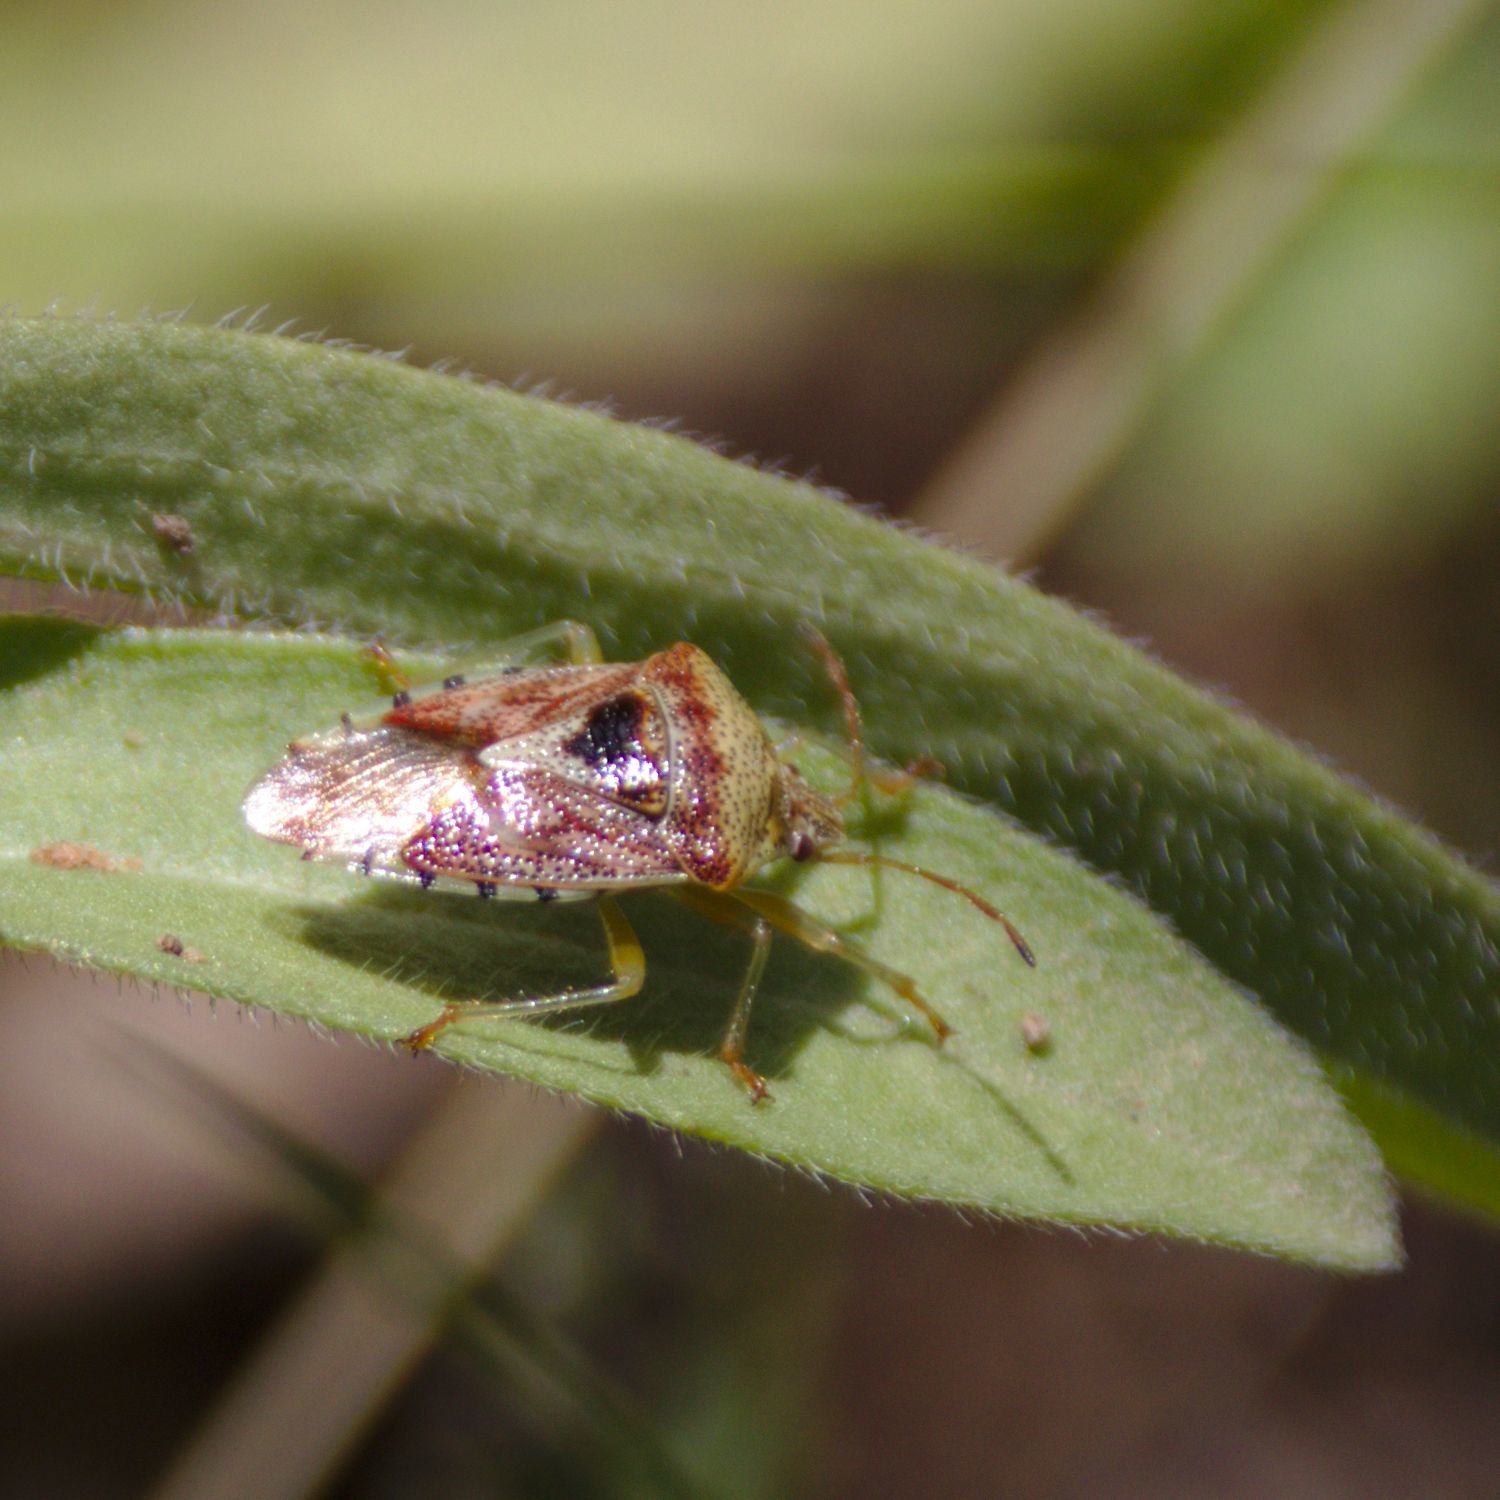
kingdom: Animalia
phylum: Arthropoda
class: Insecta
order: Hemiptera
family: Acanthosomatidae
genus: Elasmucha
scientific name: Elasmucha grisea
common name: Parent bug
